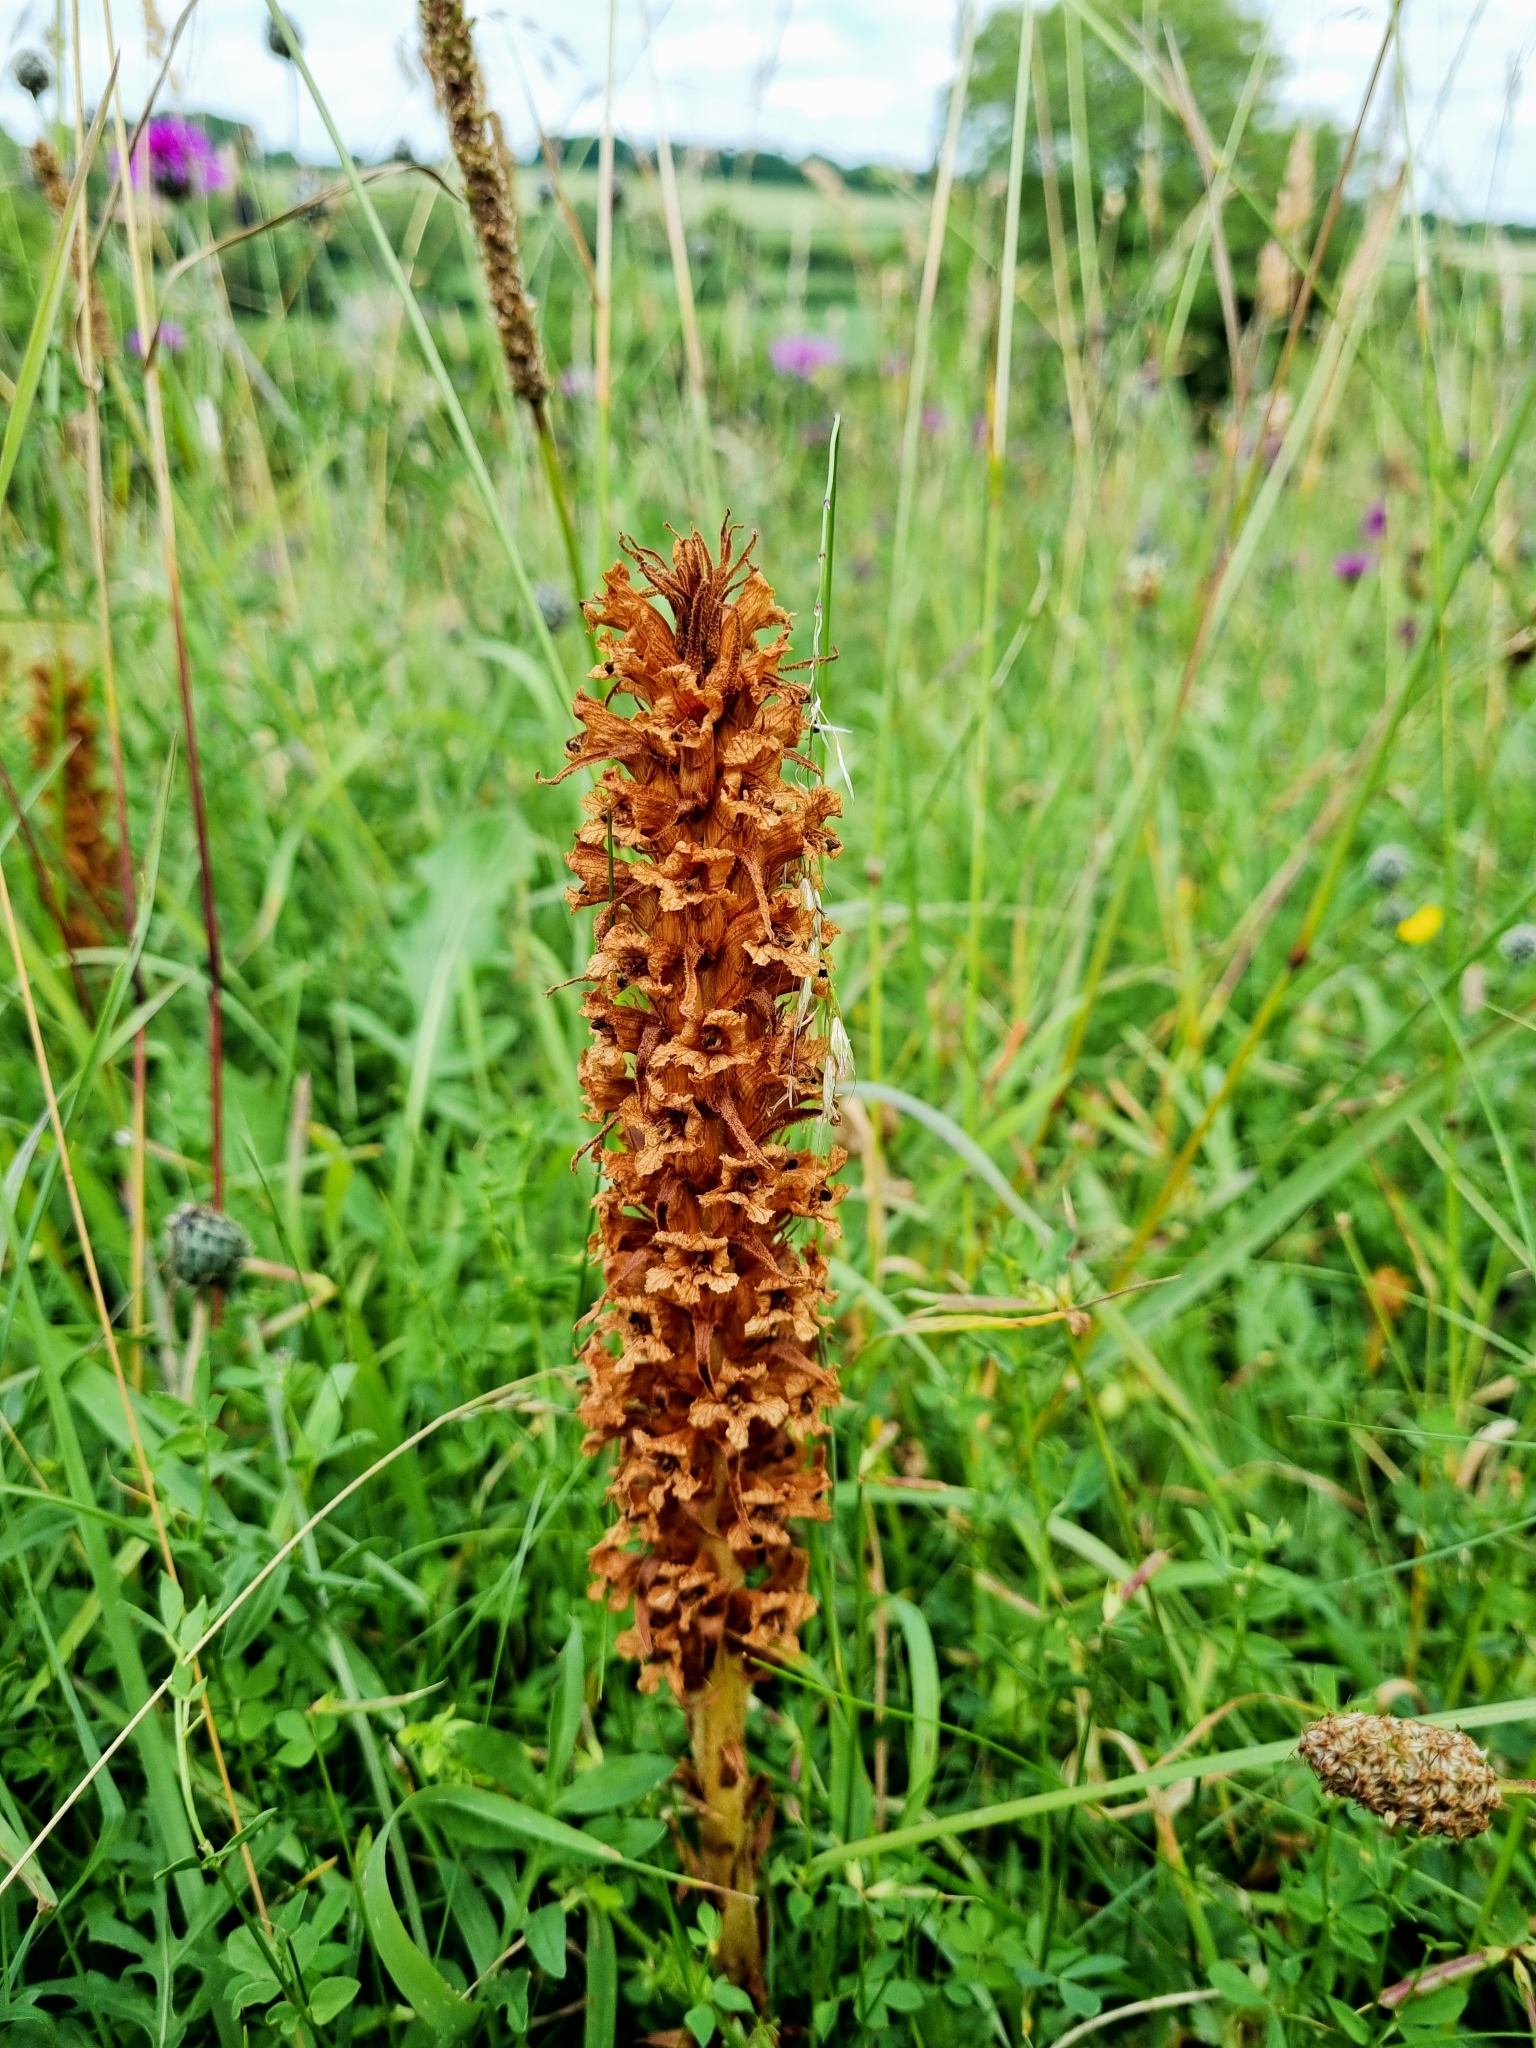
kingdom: Plantae
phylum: Tracheophyta
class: Magnoliopsida
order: Lamiales
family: Orobanchaceae
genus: Orobanche
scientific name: Orobanche elatior
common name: Knapweed broomrape
